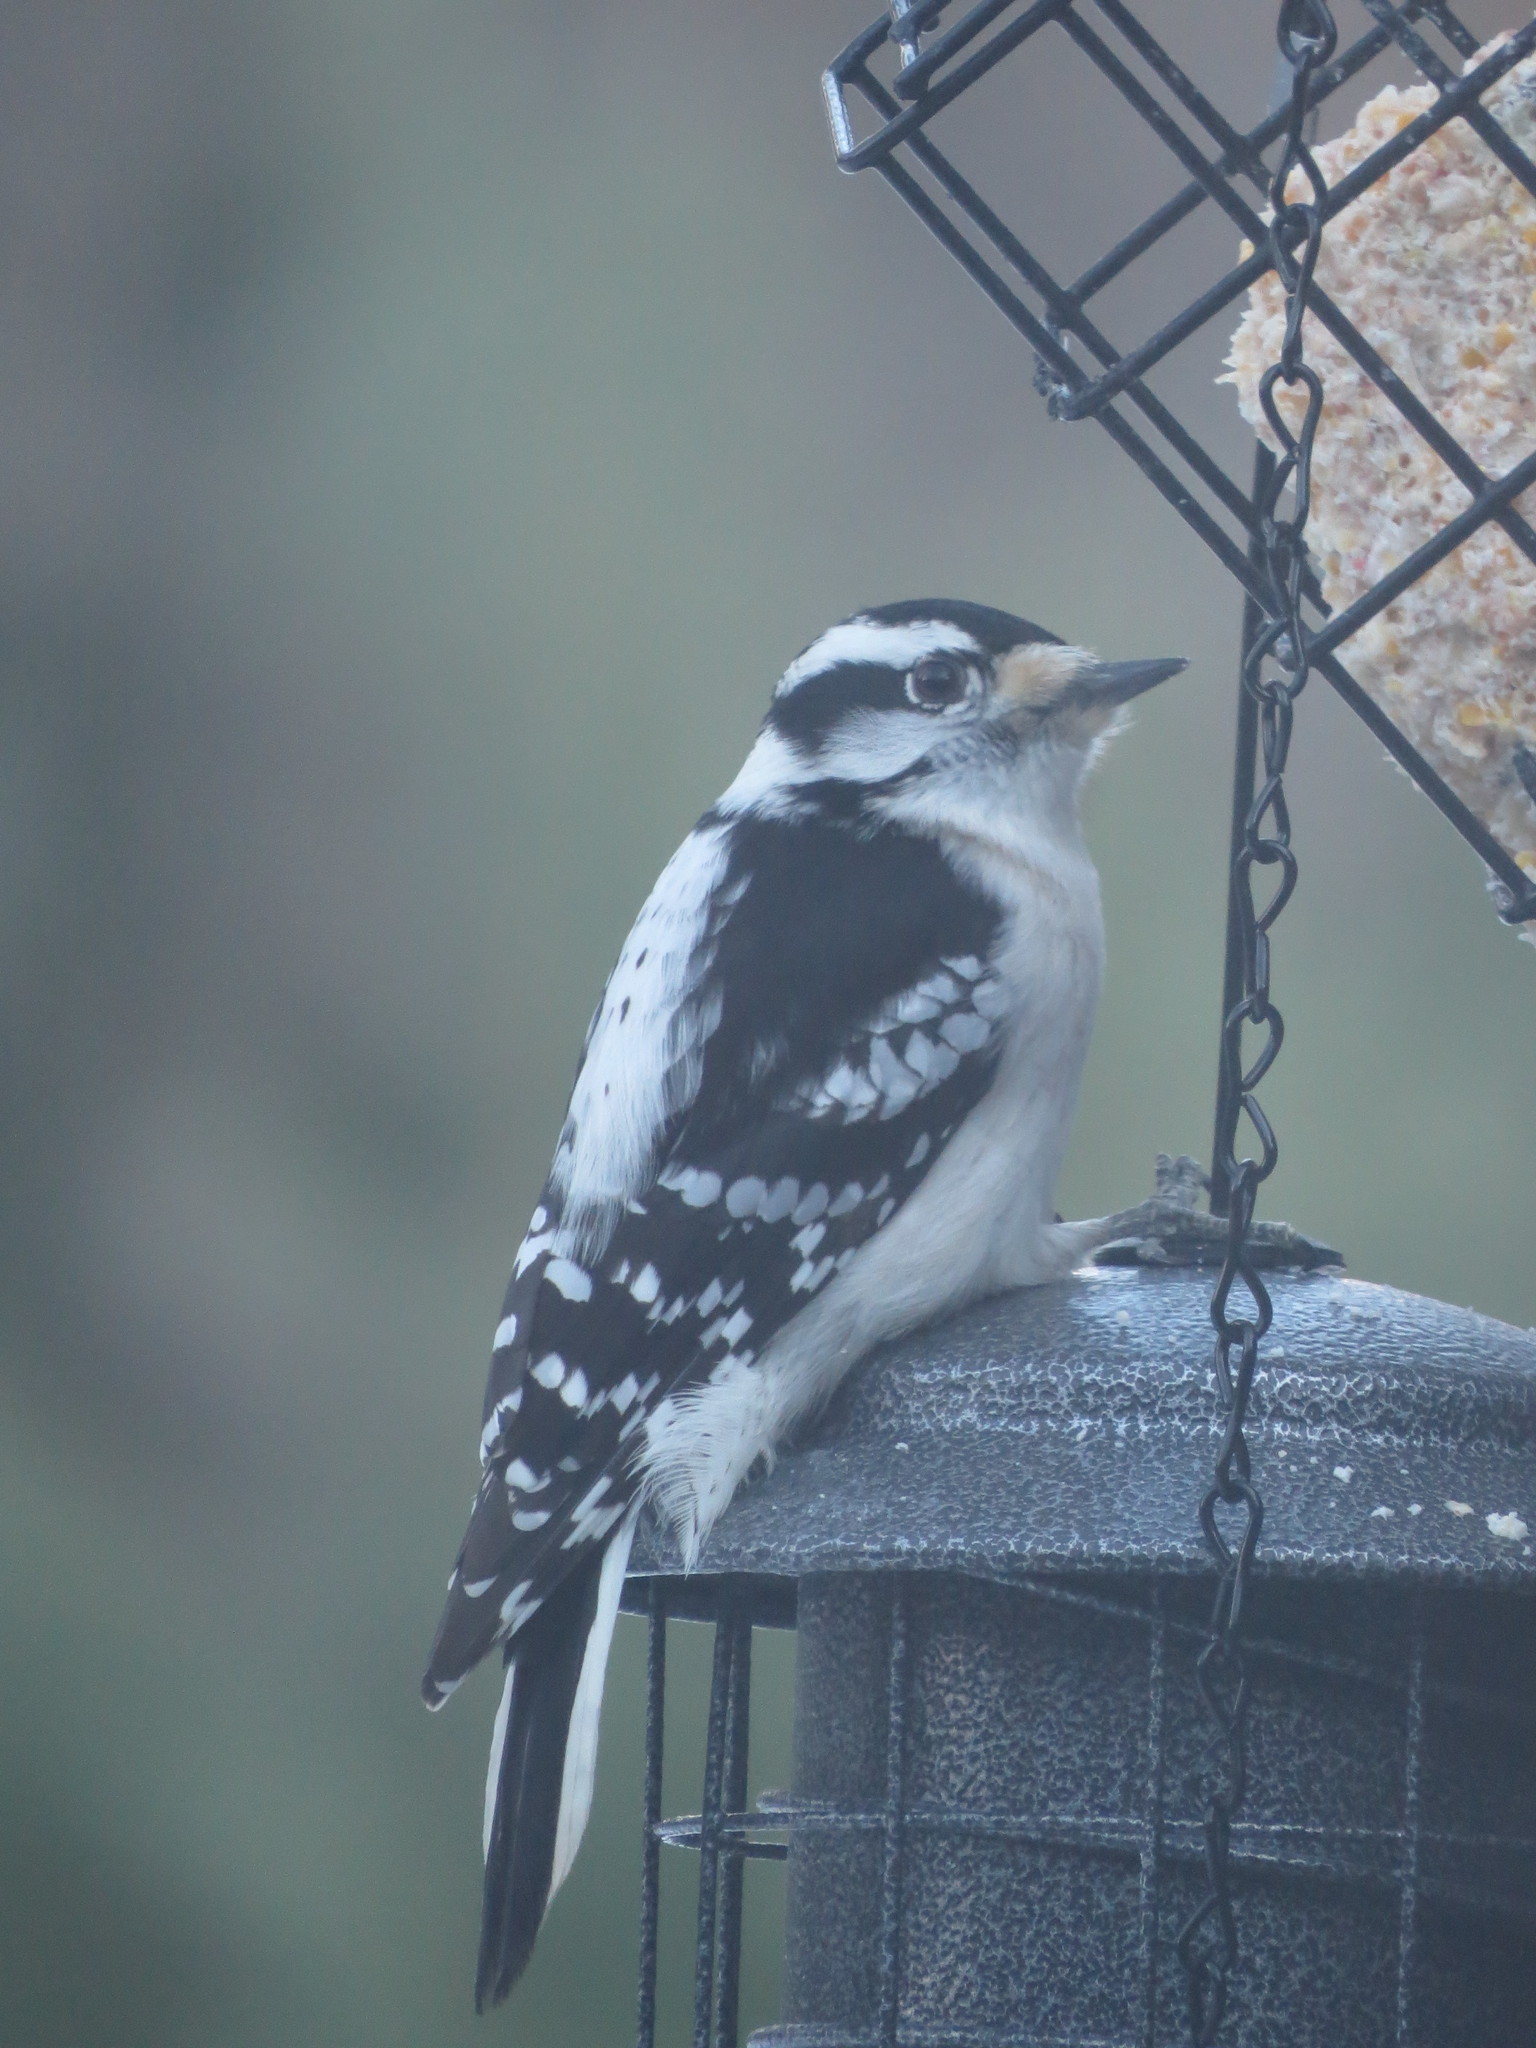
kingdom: Animalia
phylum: Chordata
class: Aves
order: Piciformes
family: Picidae
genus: Dryobates
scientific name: Dryobates pubescens
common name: Downy woodpecker
